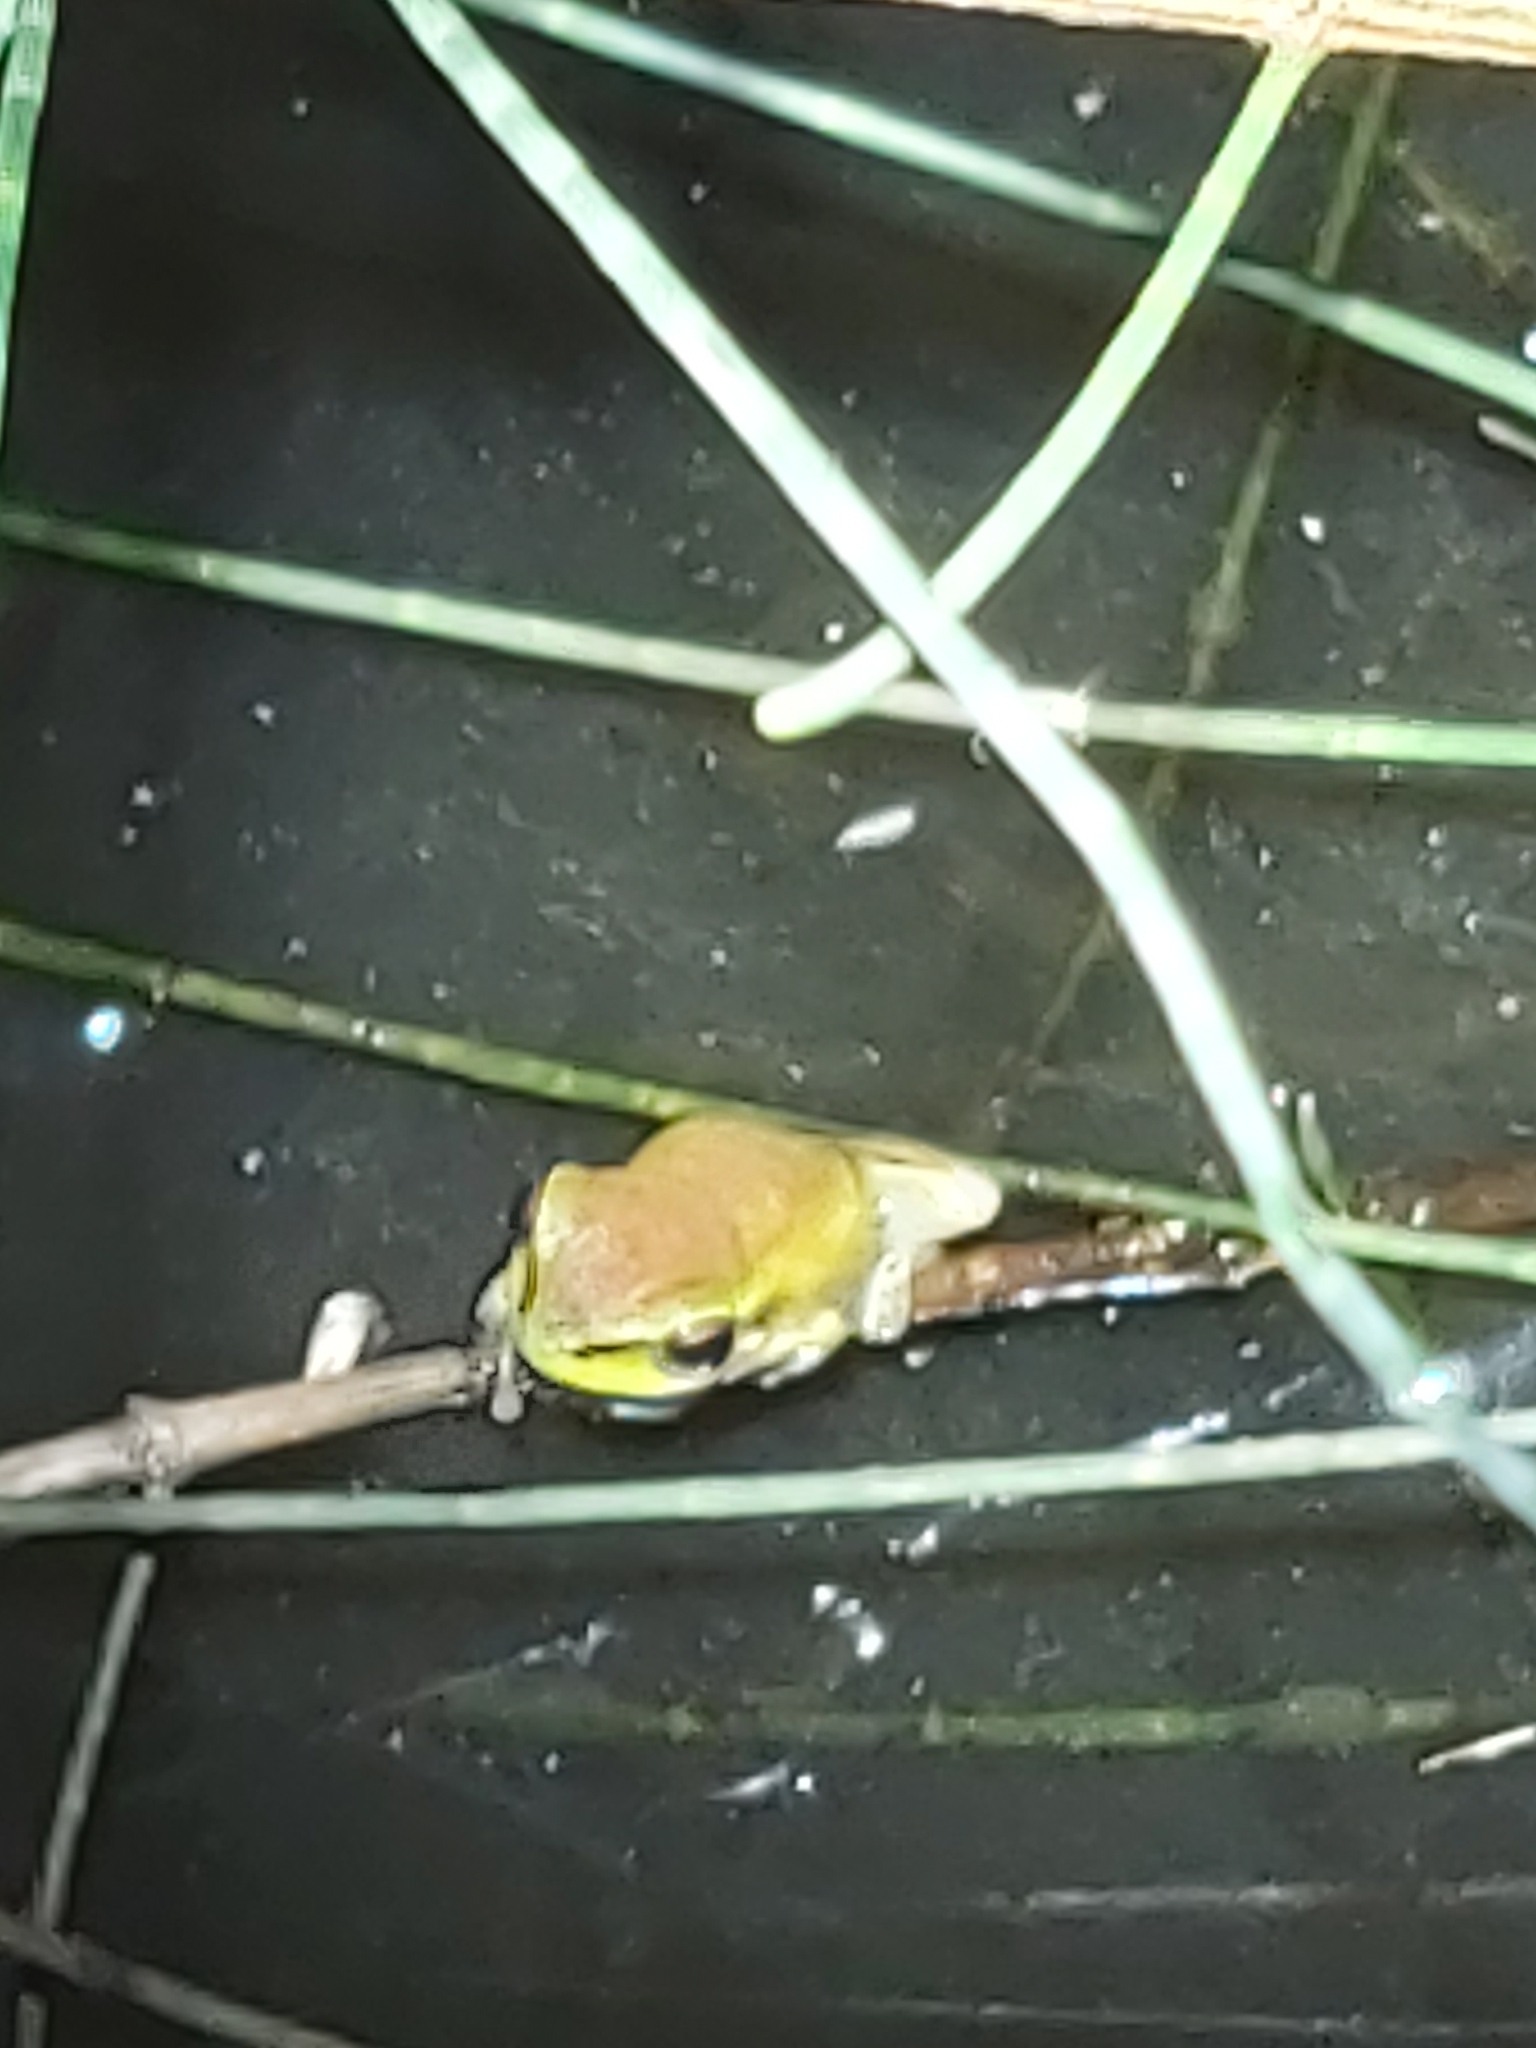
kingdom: Animalia
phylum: Chordata
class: Amphibia
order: Anura
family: Pelodryadidae
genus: Litoria
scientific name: Litoria fallax
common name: Eastern dwarf treefrog
